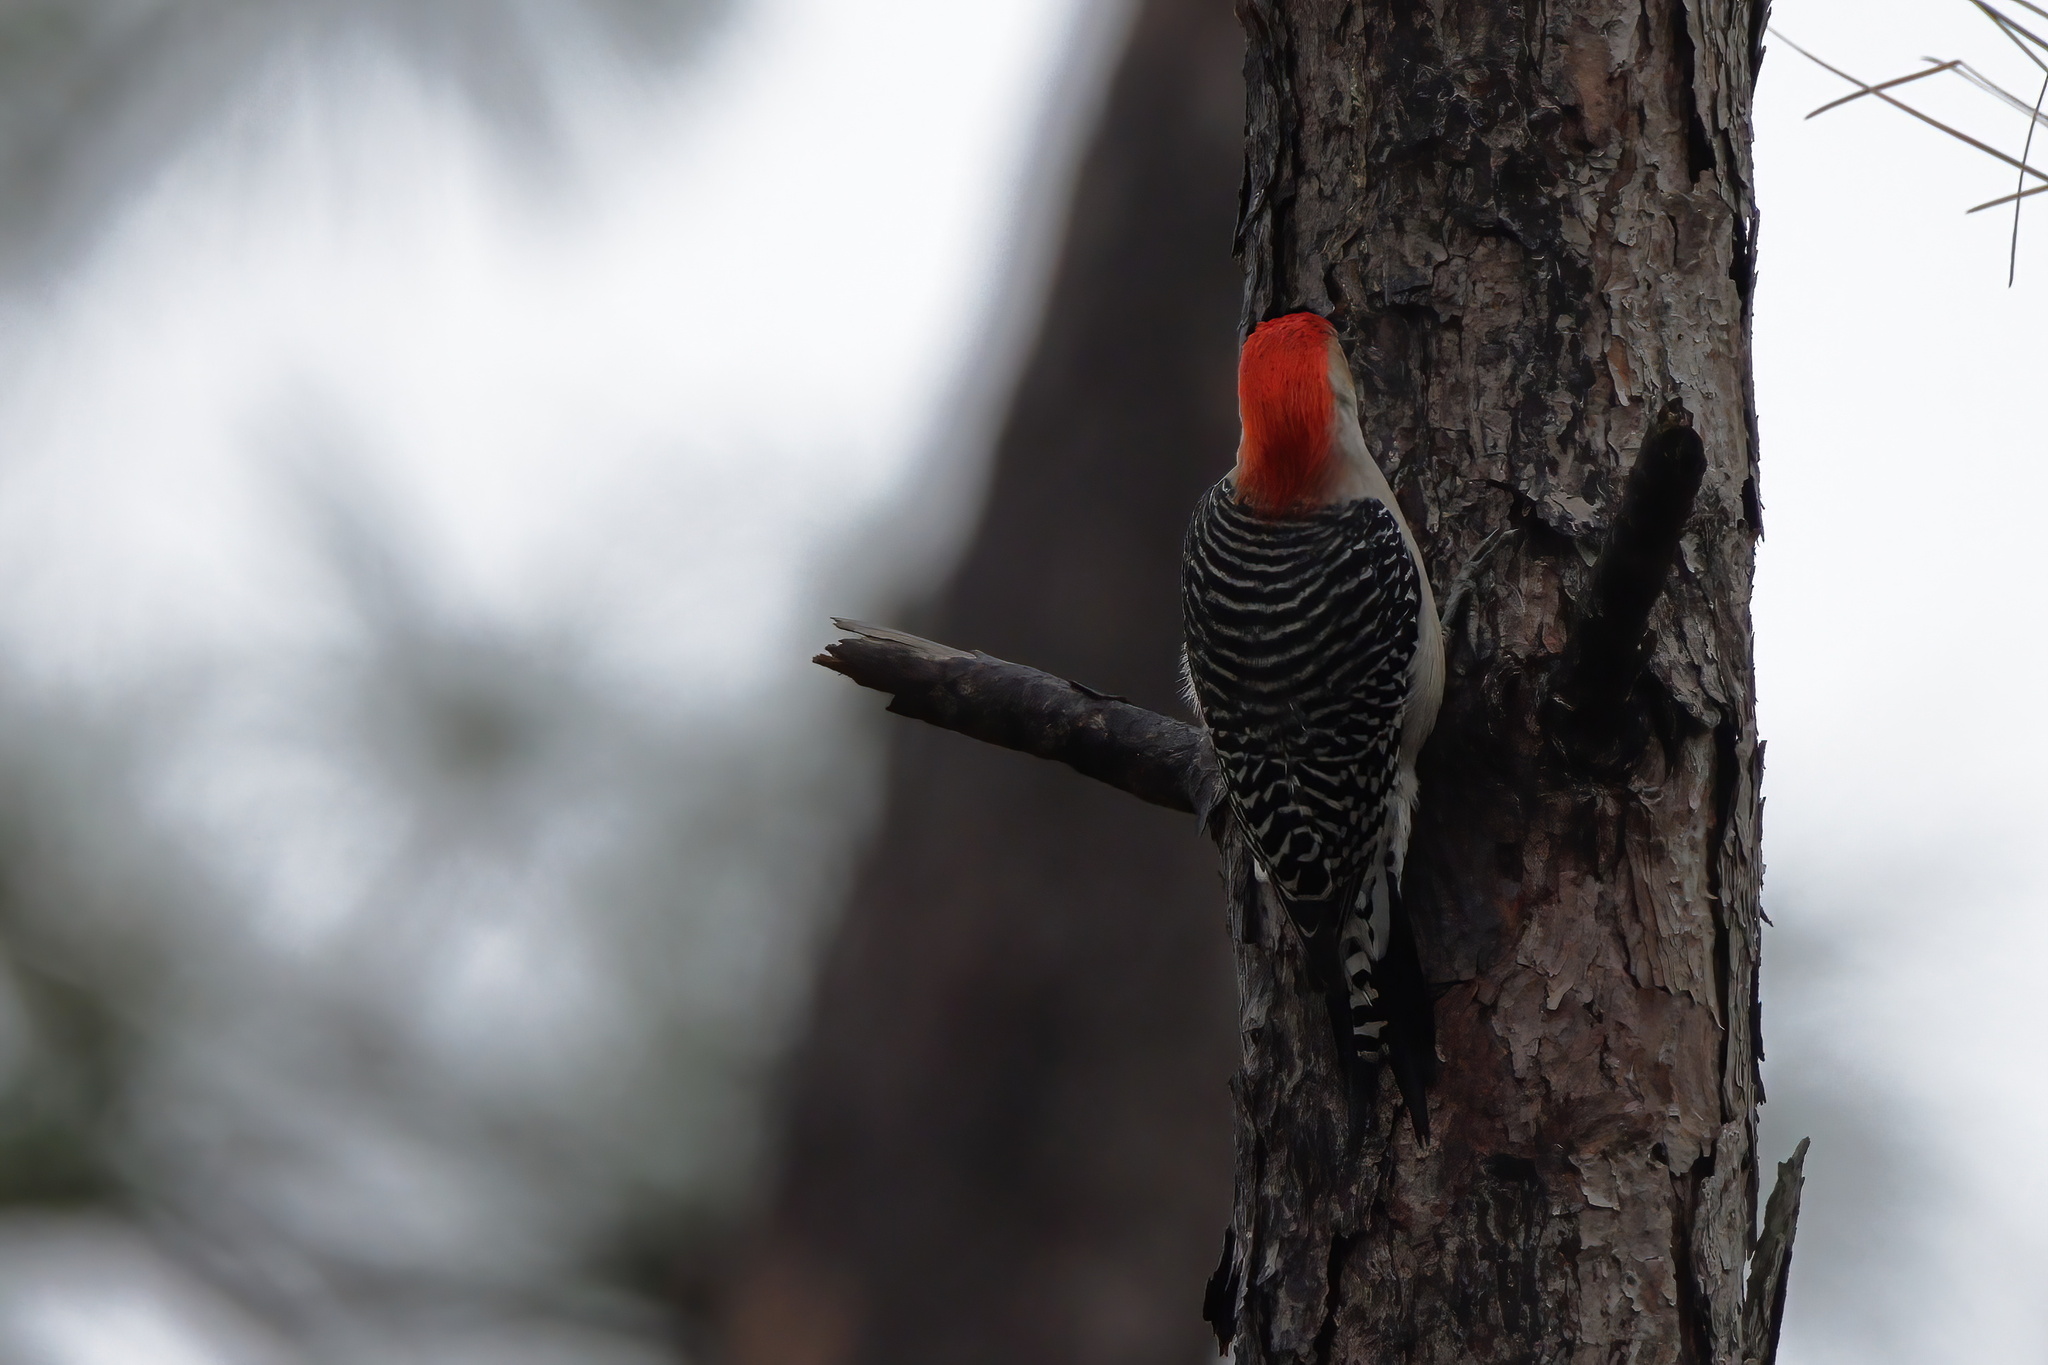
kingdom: Animalia
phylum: Chordata
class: Aves
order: Piciformes
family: Picidae
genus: Melanerpes
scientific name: Melanerpes carolinus
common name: Red-bellied woodpecker
